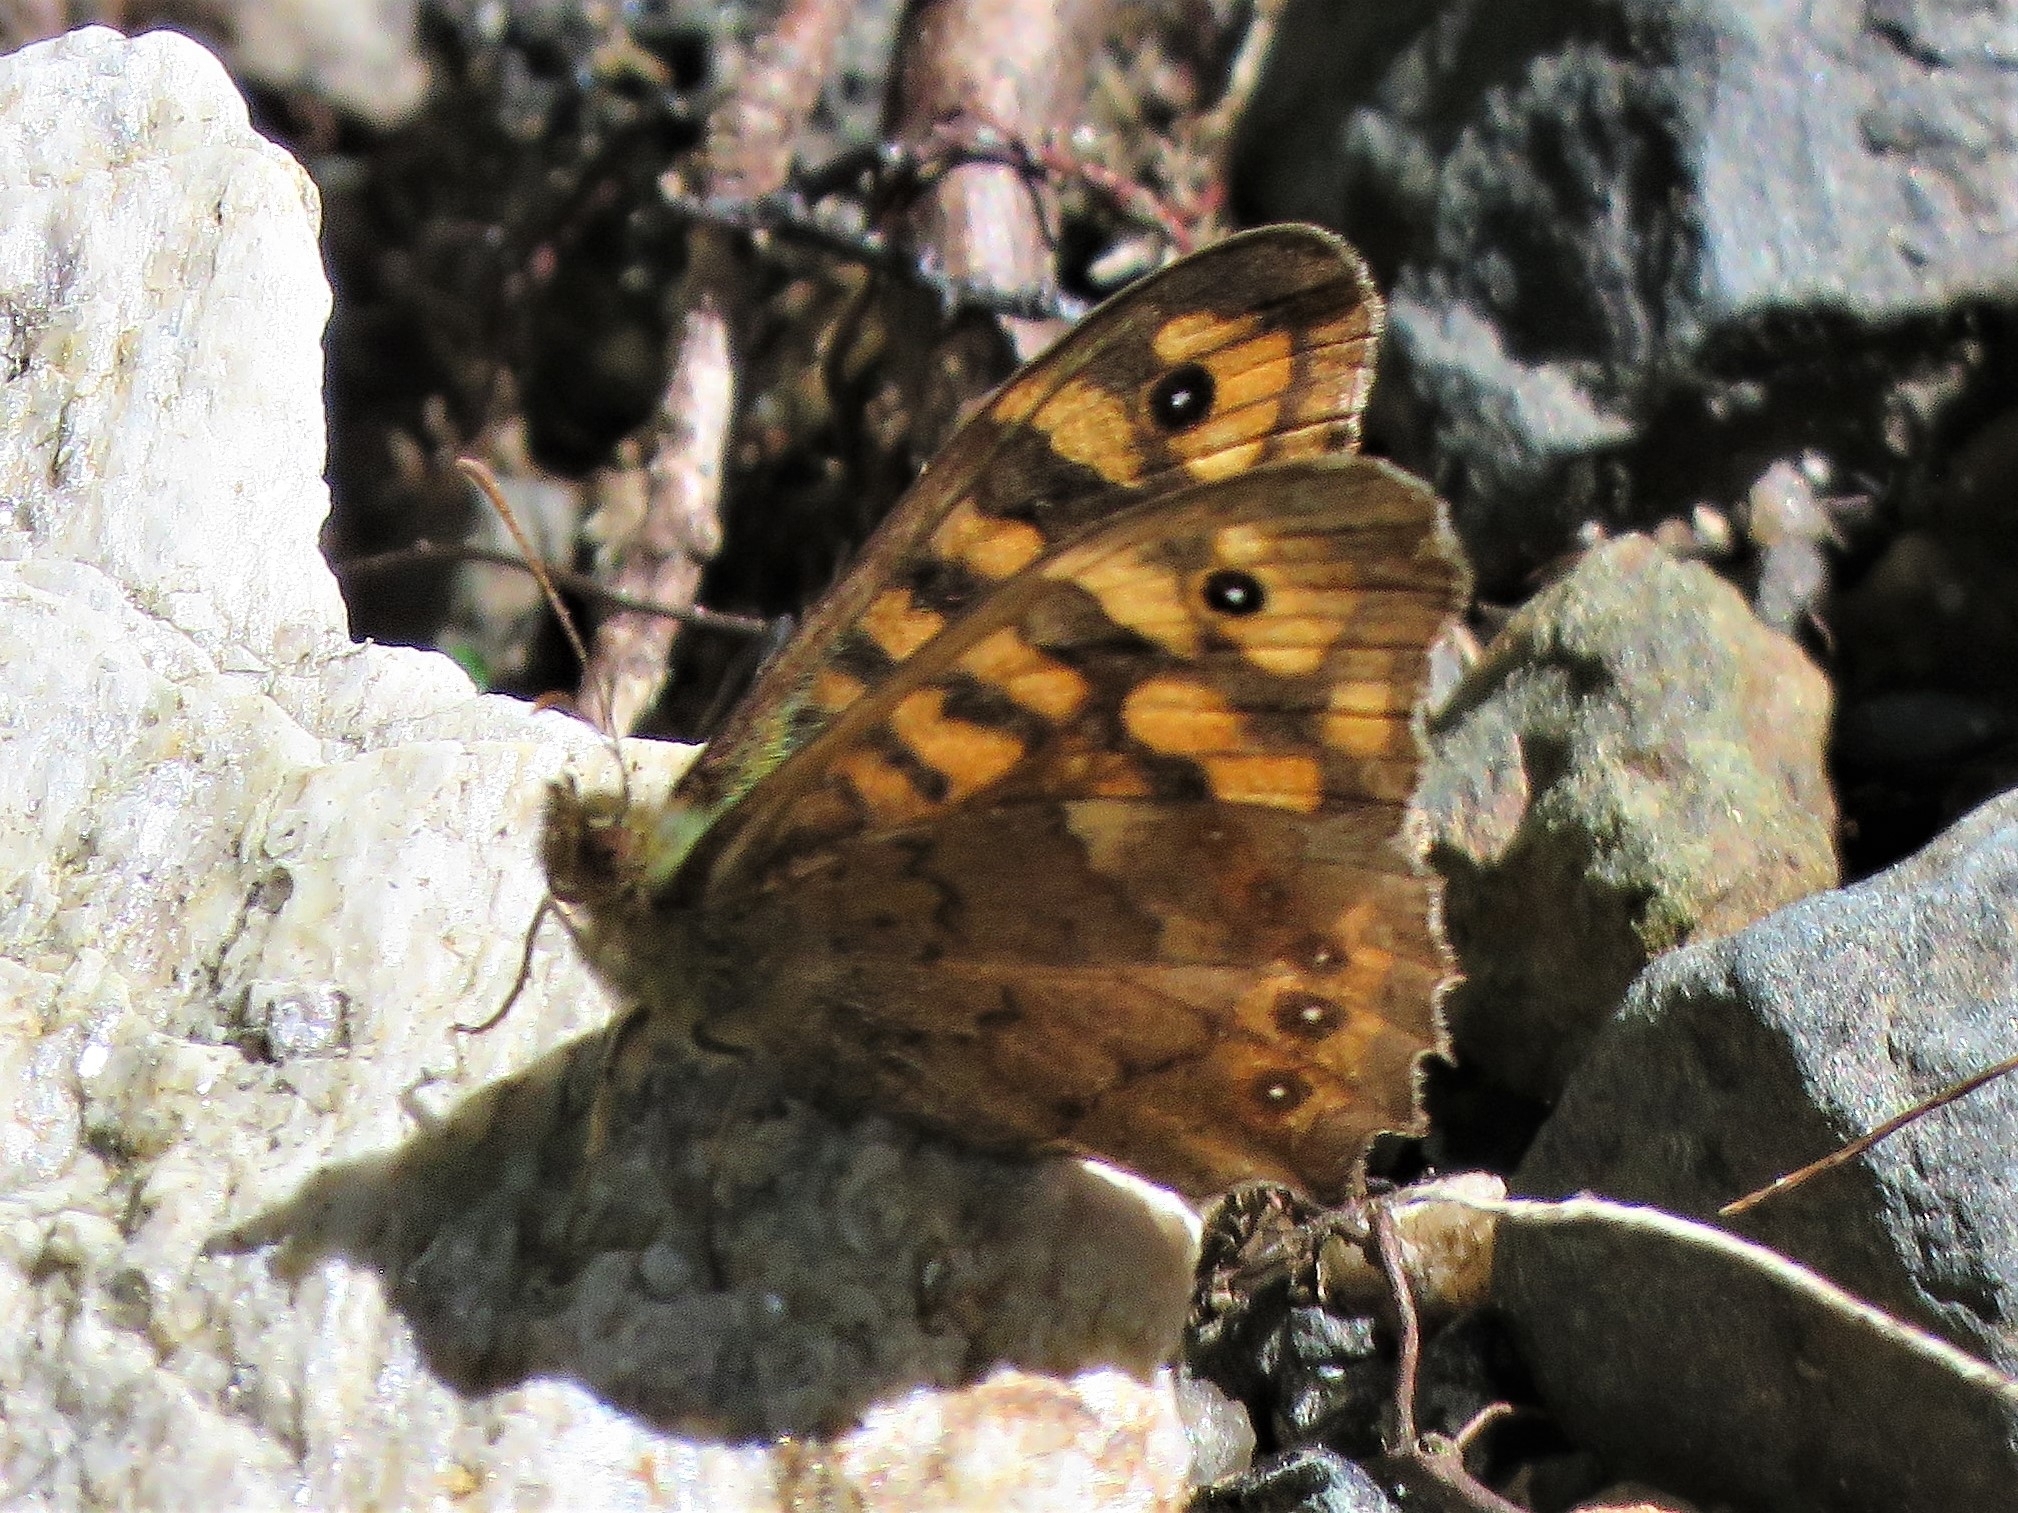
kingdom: Animalia
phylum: Arthropoda
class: Insecta
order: Lepidoptera
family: Nymphalidae
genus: Pararge
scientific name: Pararge aegeria
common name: Speckled wood
